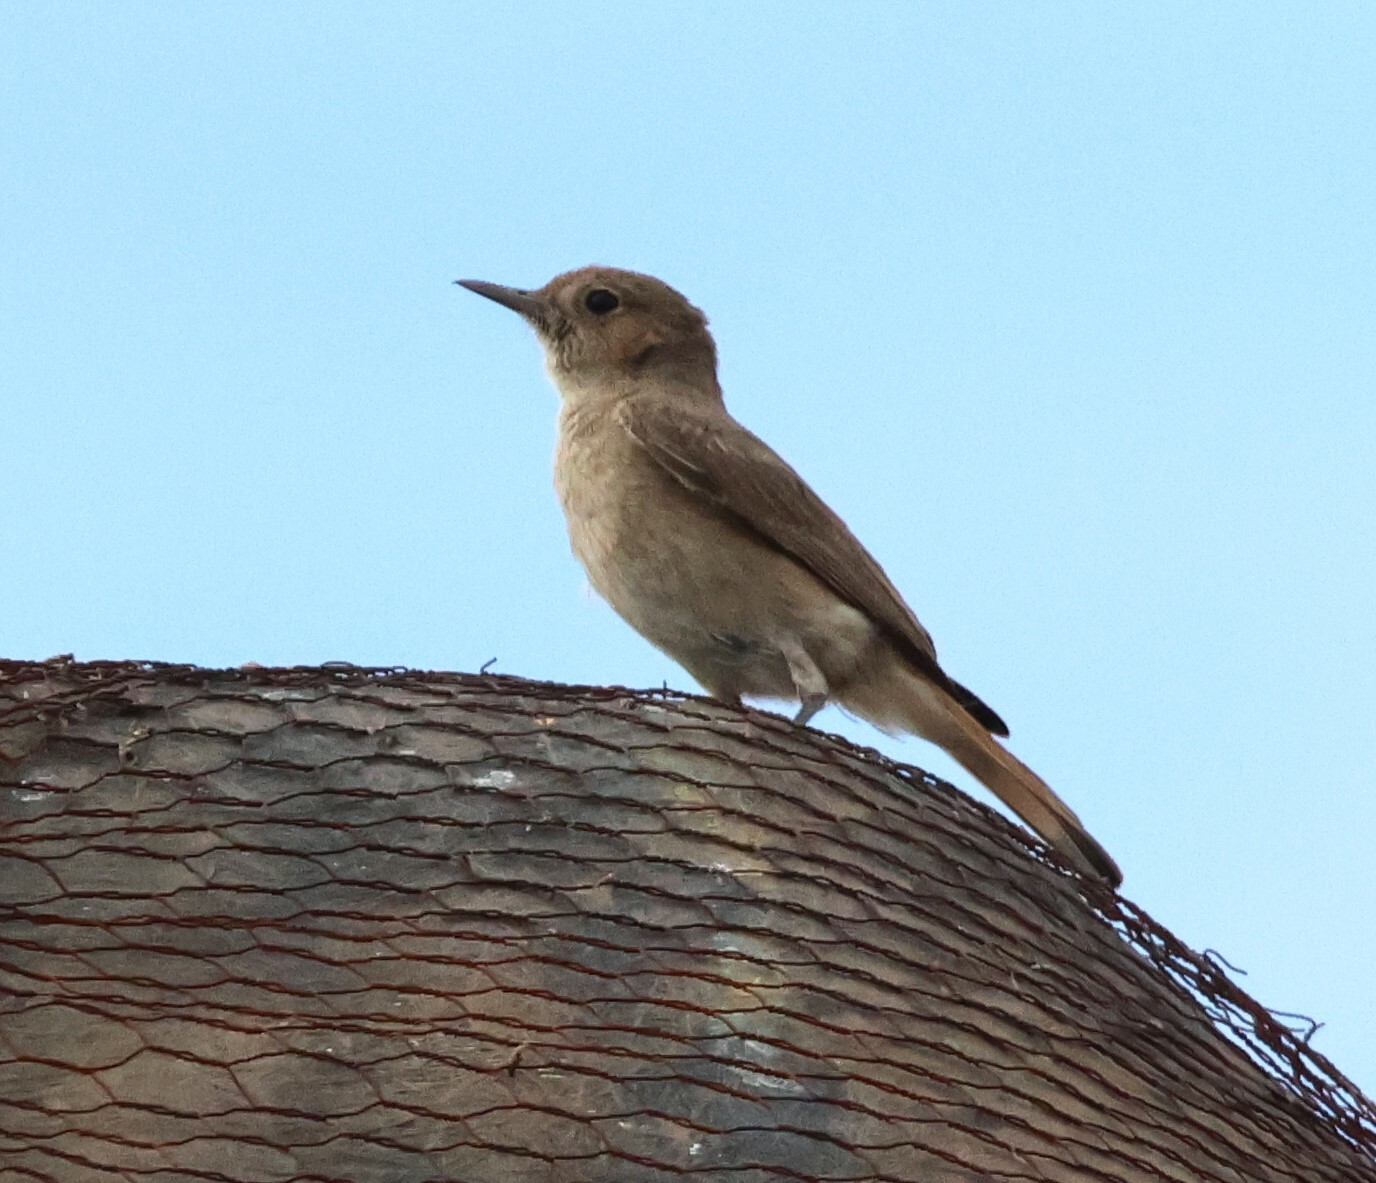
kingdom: Animalia
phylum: Chordata
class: Aves
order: Passeriformes
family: Muscicapidae
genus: Oenanthe
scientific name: Oenanthe familiaris
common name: Familiar chat
